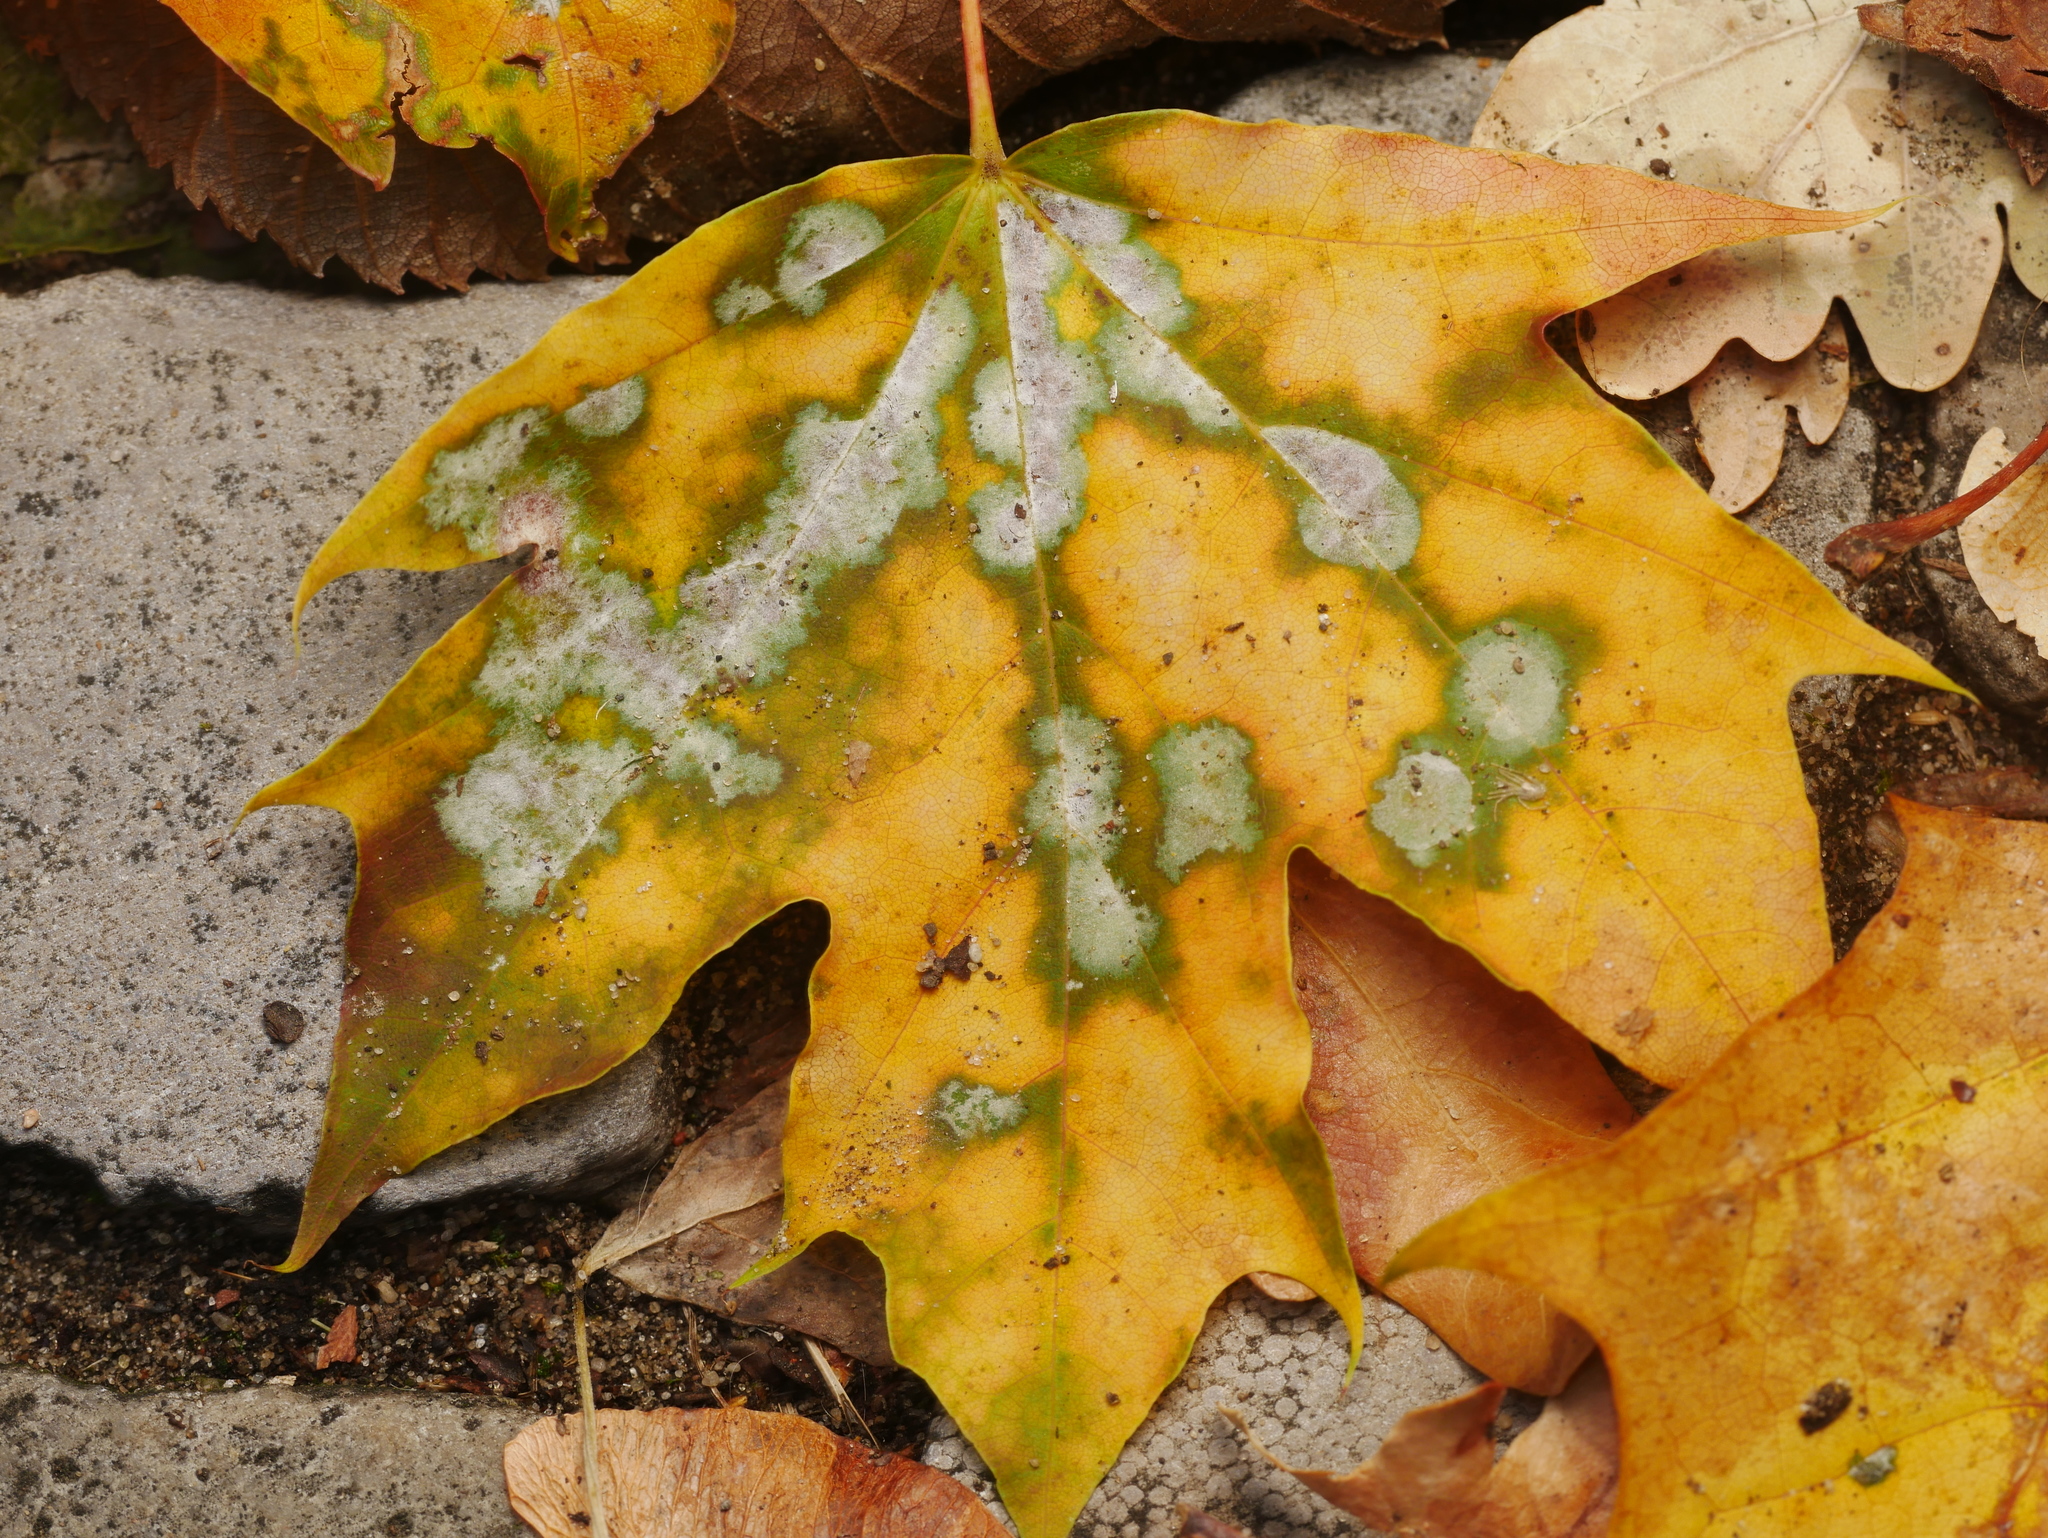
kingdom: Fungi
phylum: Ascomycota
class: Leotiomycetes
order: Helotiales
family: Erysiphaceae
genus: Sawadaea
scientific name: Sawadaea tulasnei
